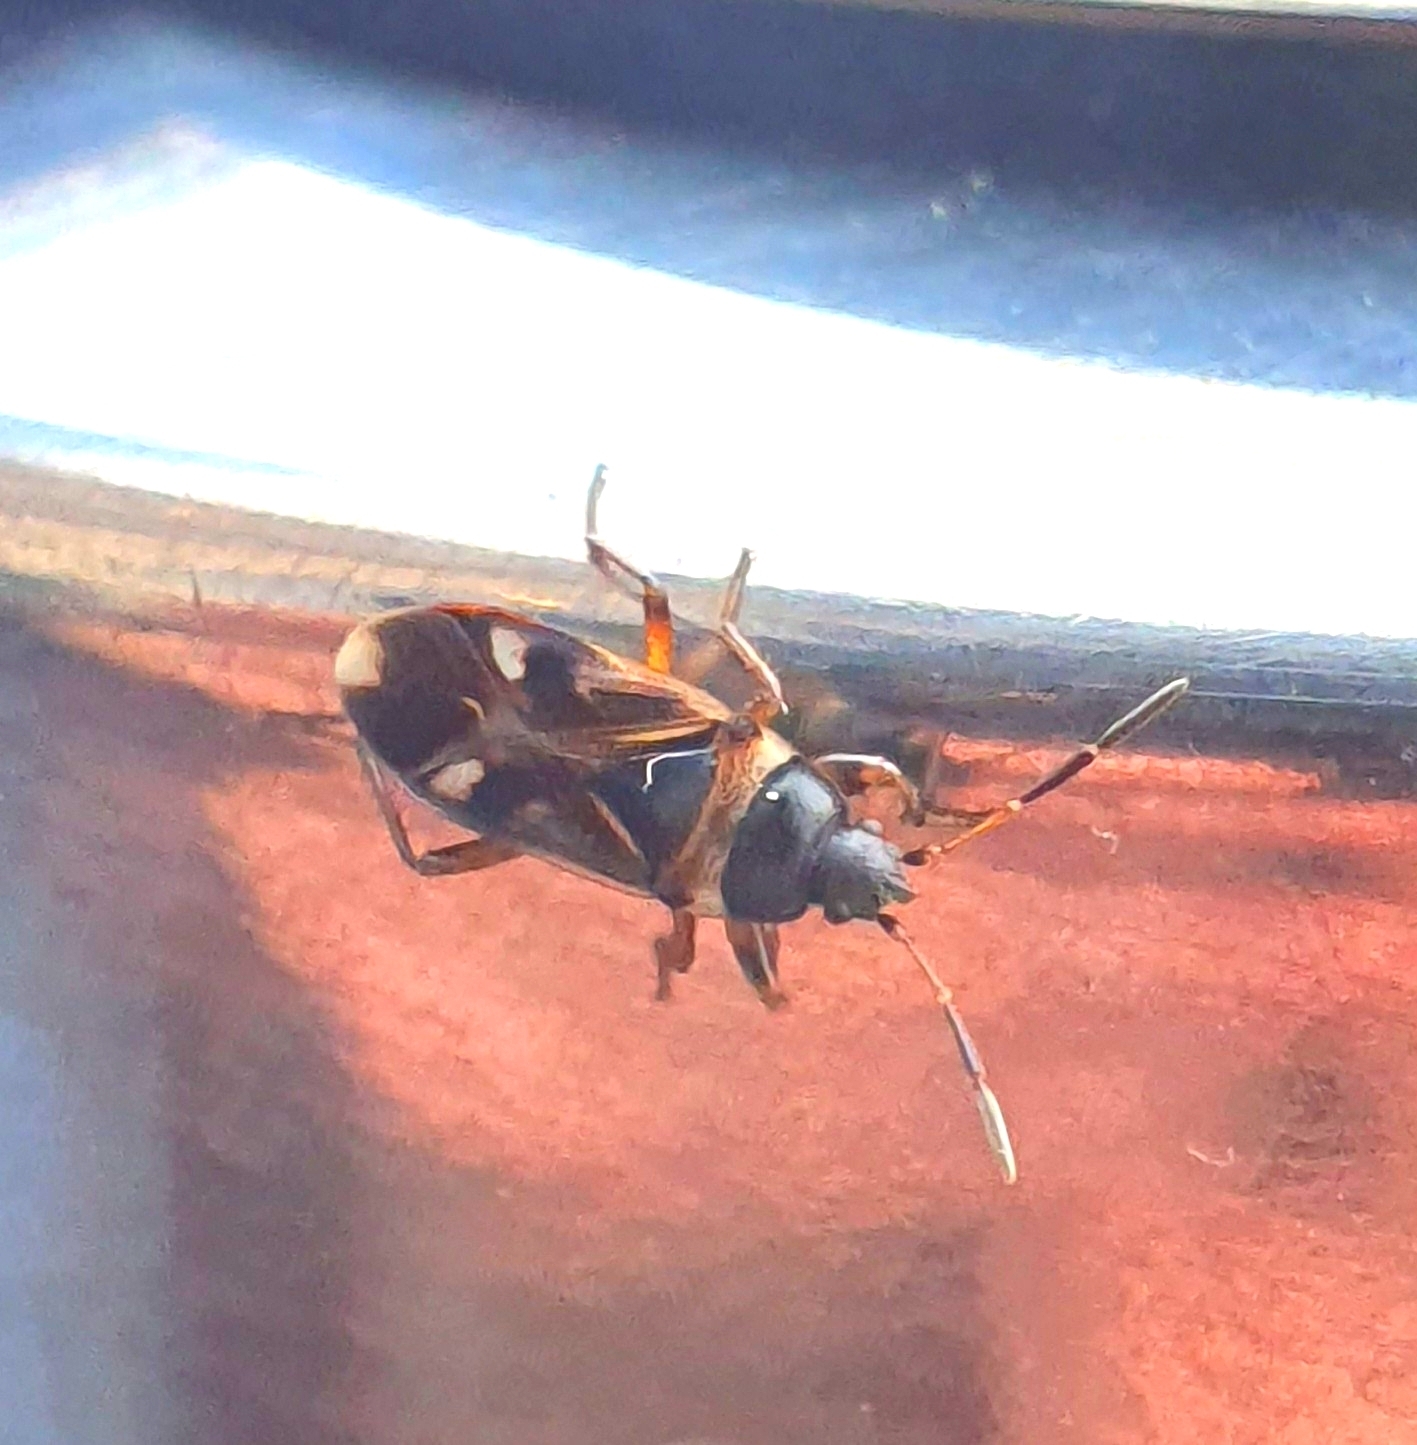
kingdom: Animalia
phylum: Arthropoda
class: Insecta
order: Hemiptera
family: Rhyparochromidae
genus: Raglius
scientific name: Raglius alboacuminatus
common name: Dirt-colored seed bug
